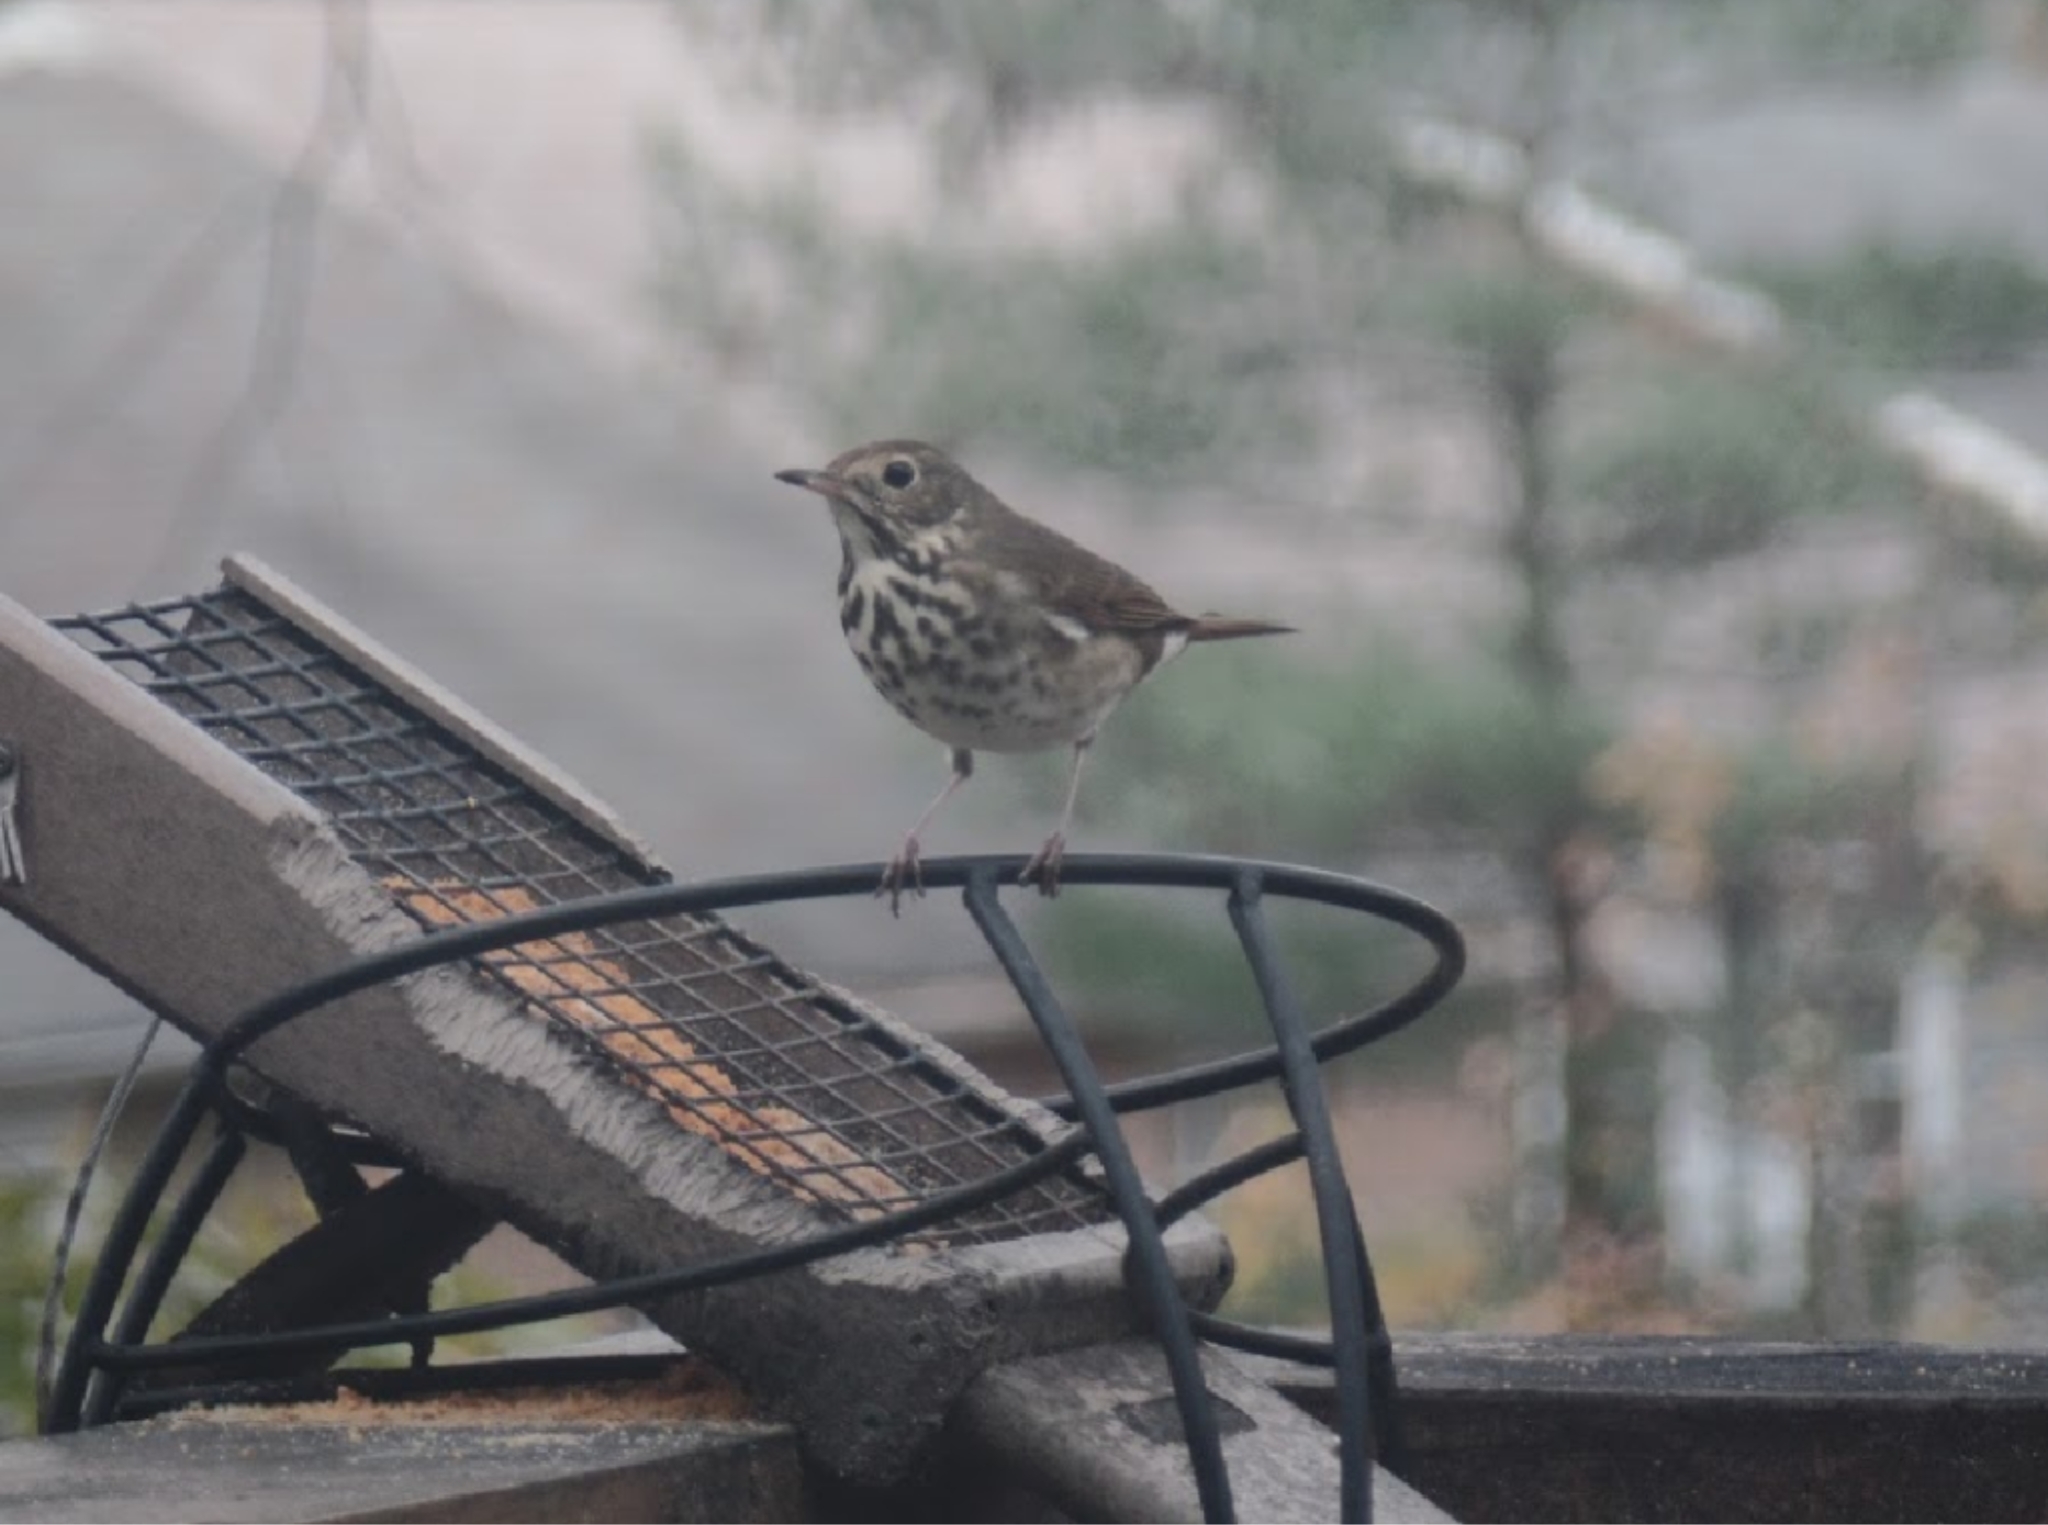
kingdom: Animalia
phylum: Chordata
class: Aves
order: Passeriformes
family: Turdidae
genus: Catharus
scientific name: Catharus guttatus
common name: Hermit thrush
